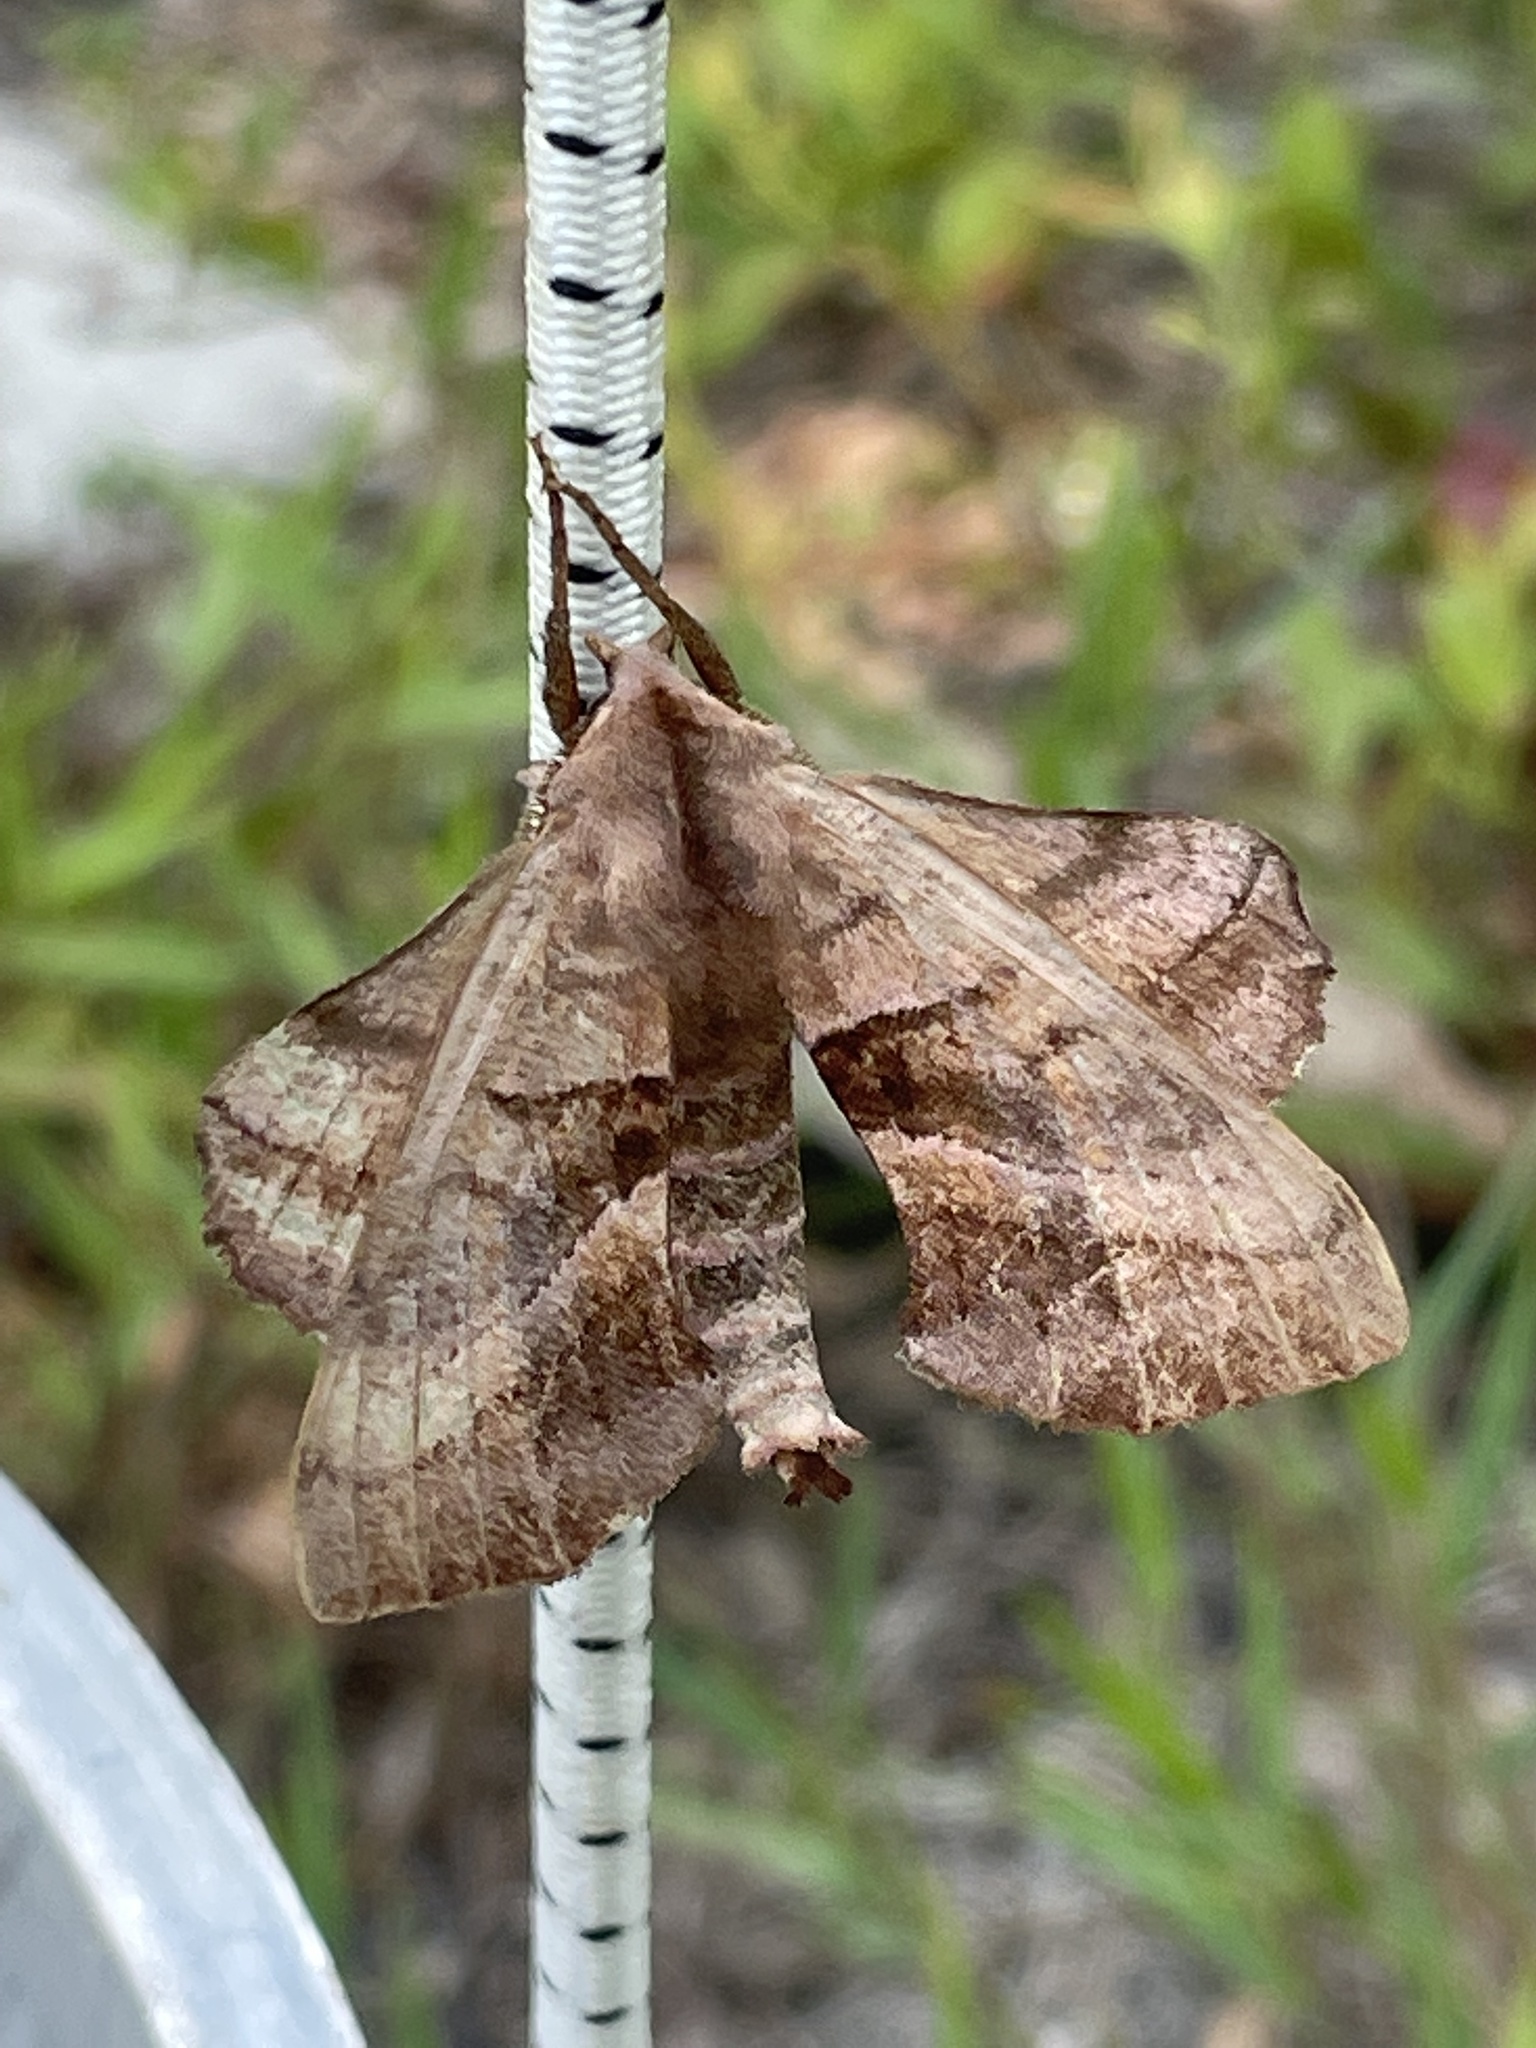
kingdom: Animalia
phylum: Arthropoda
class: Insecta
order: Lepidoptera
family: Sphingidae
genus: Amorpha
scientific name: Amorpha juglandis
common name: Walnut sphinx
